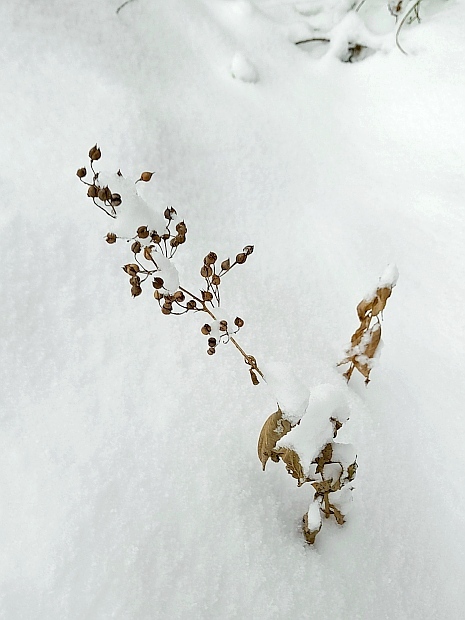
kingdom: Plantae
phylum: Tracheophyta
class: Magnoliopsida
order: Lamiales
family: Scrophulariaceae
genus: Scrophularia
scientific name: Scrophularia nodosa
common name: Common figwort
